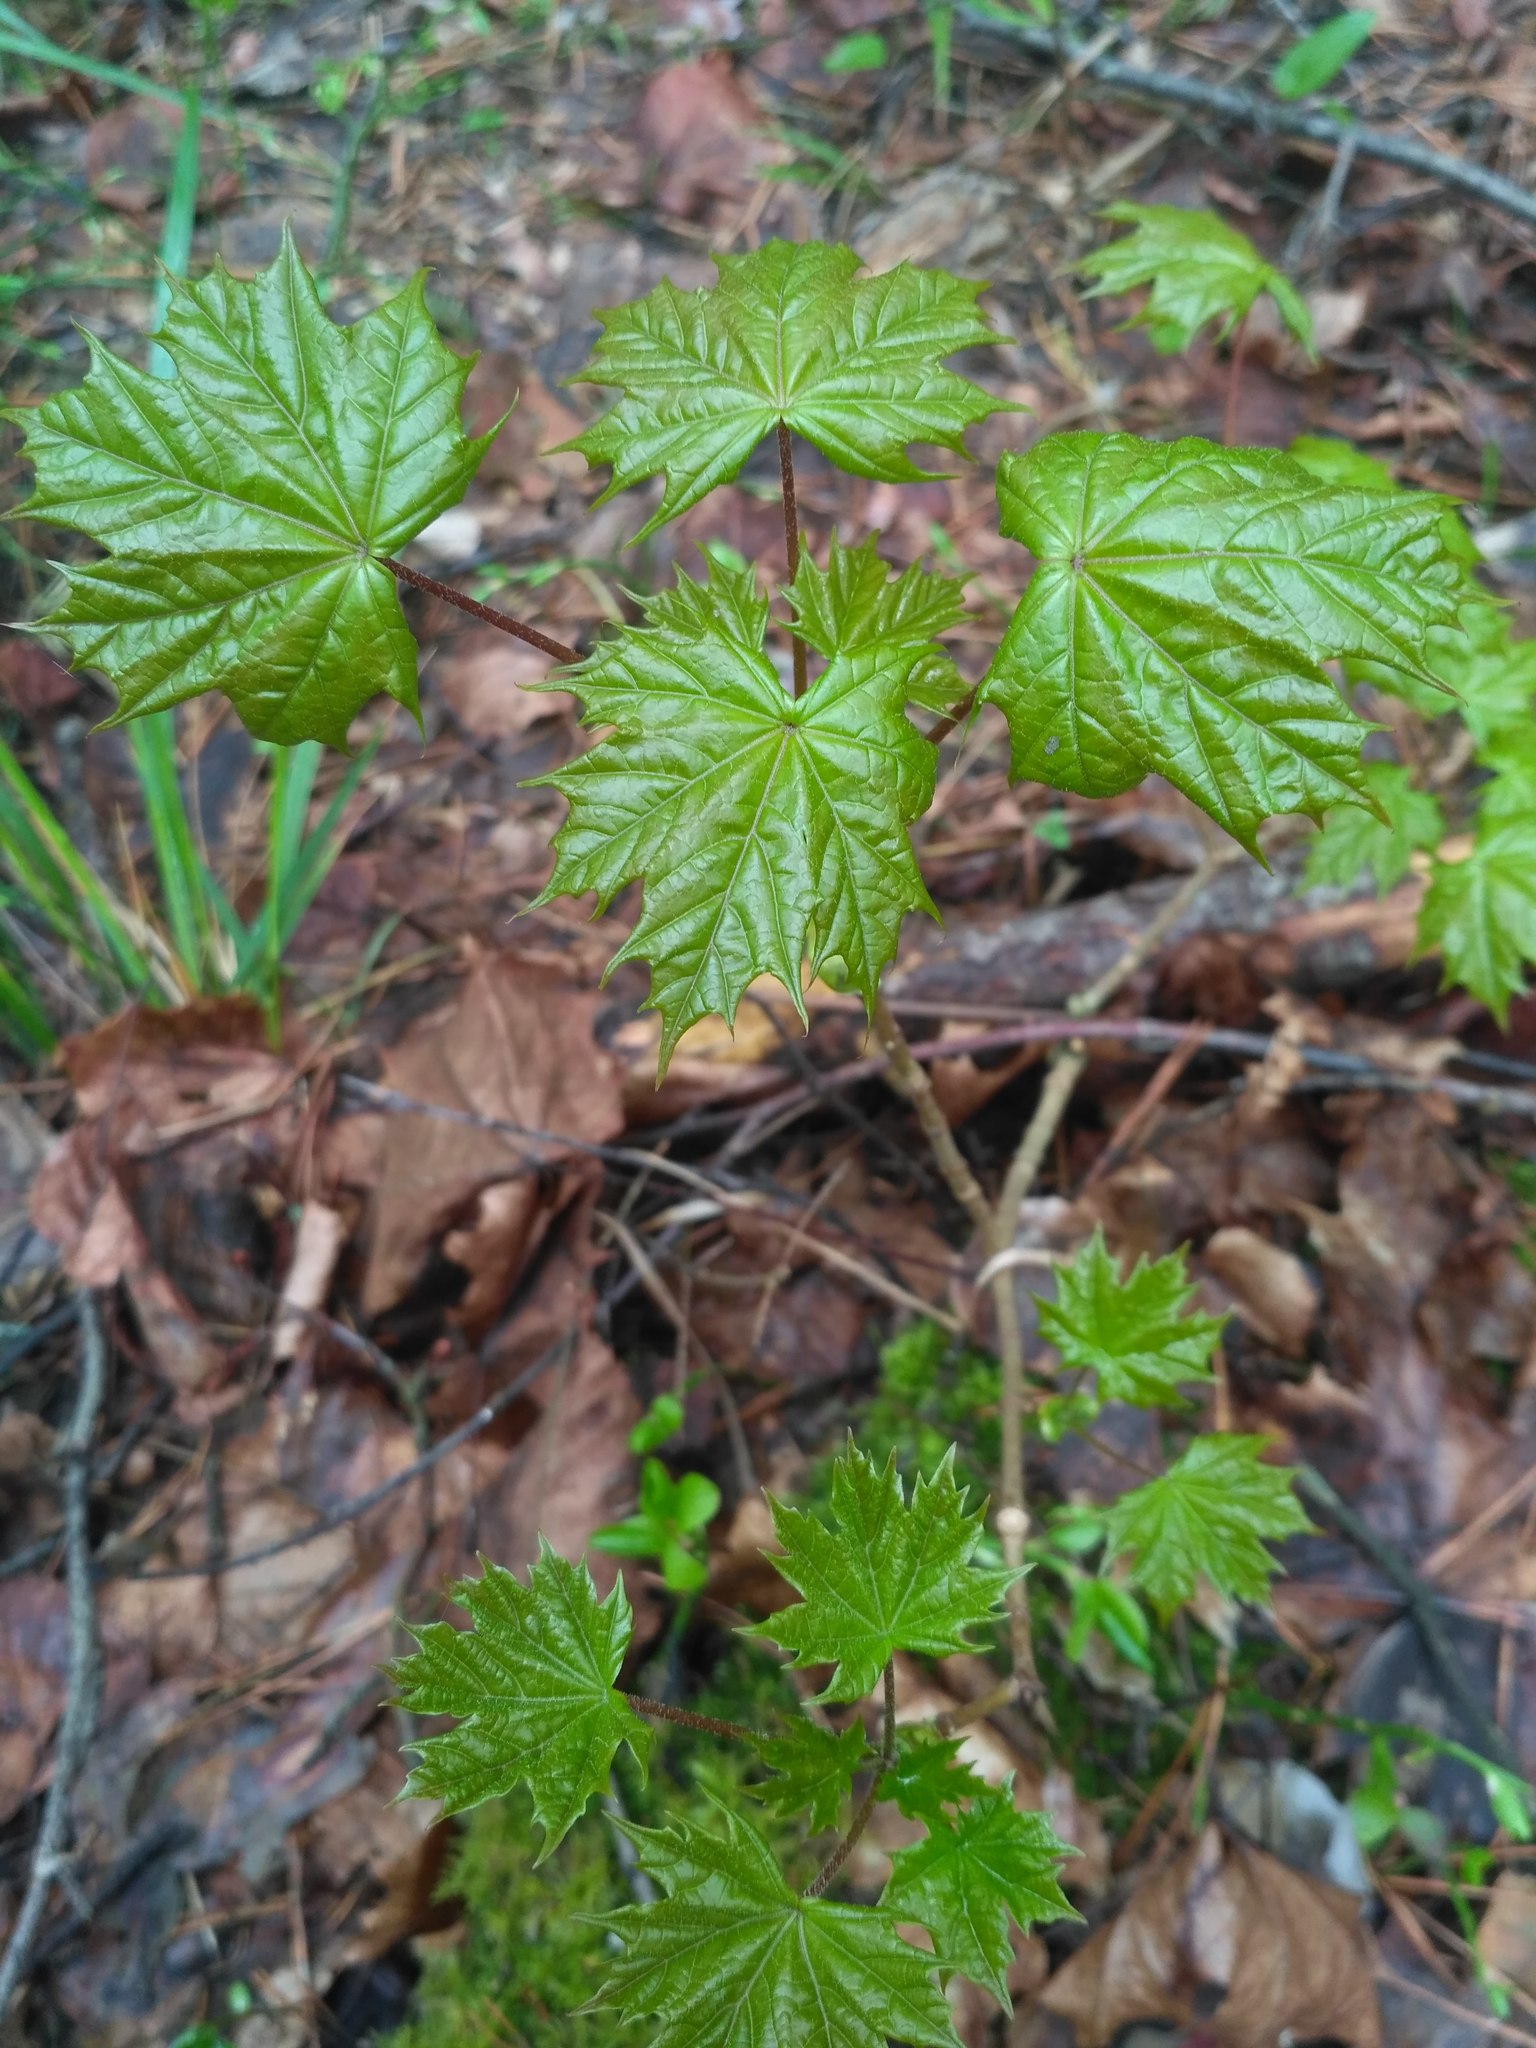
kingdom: Plantae
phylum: Tracheophyta
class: Magnoliopsida
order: Sapindales
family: Sapindaceae
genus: Acer
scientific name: Acer platanoides
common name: Norway maple
